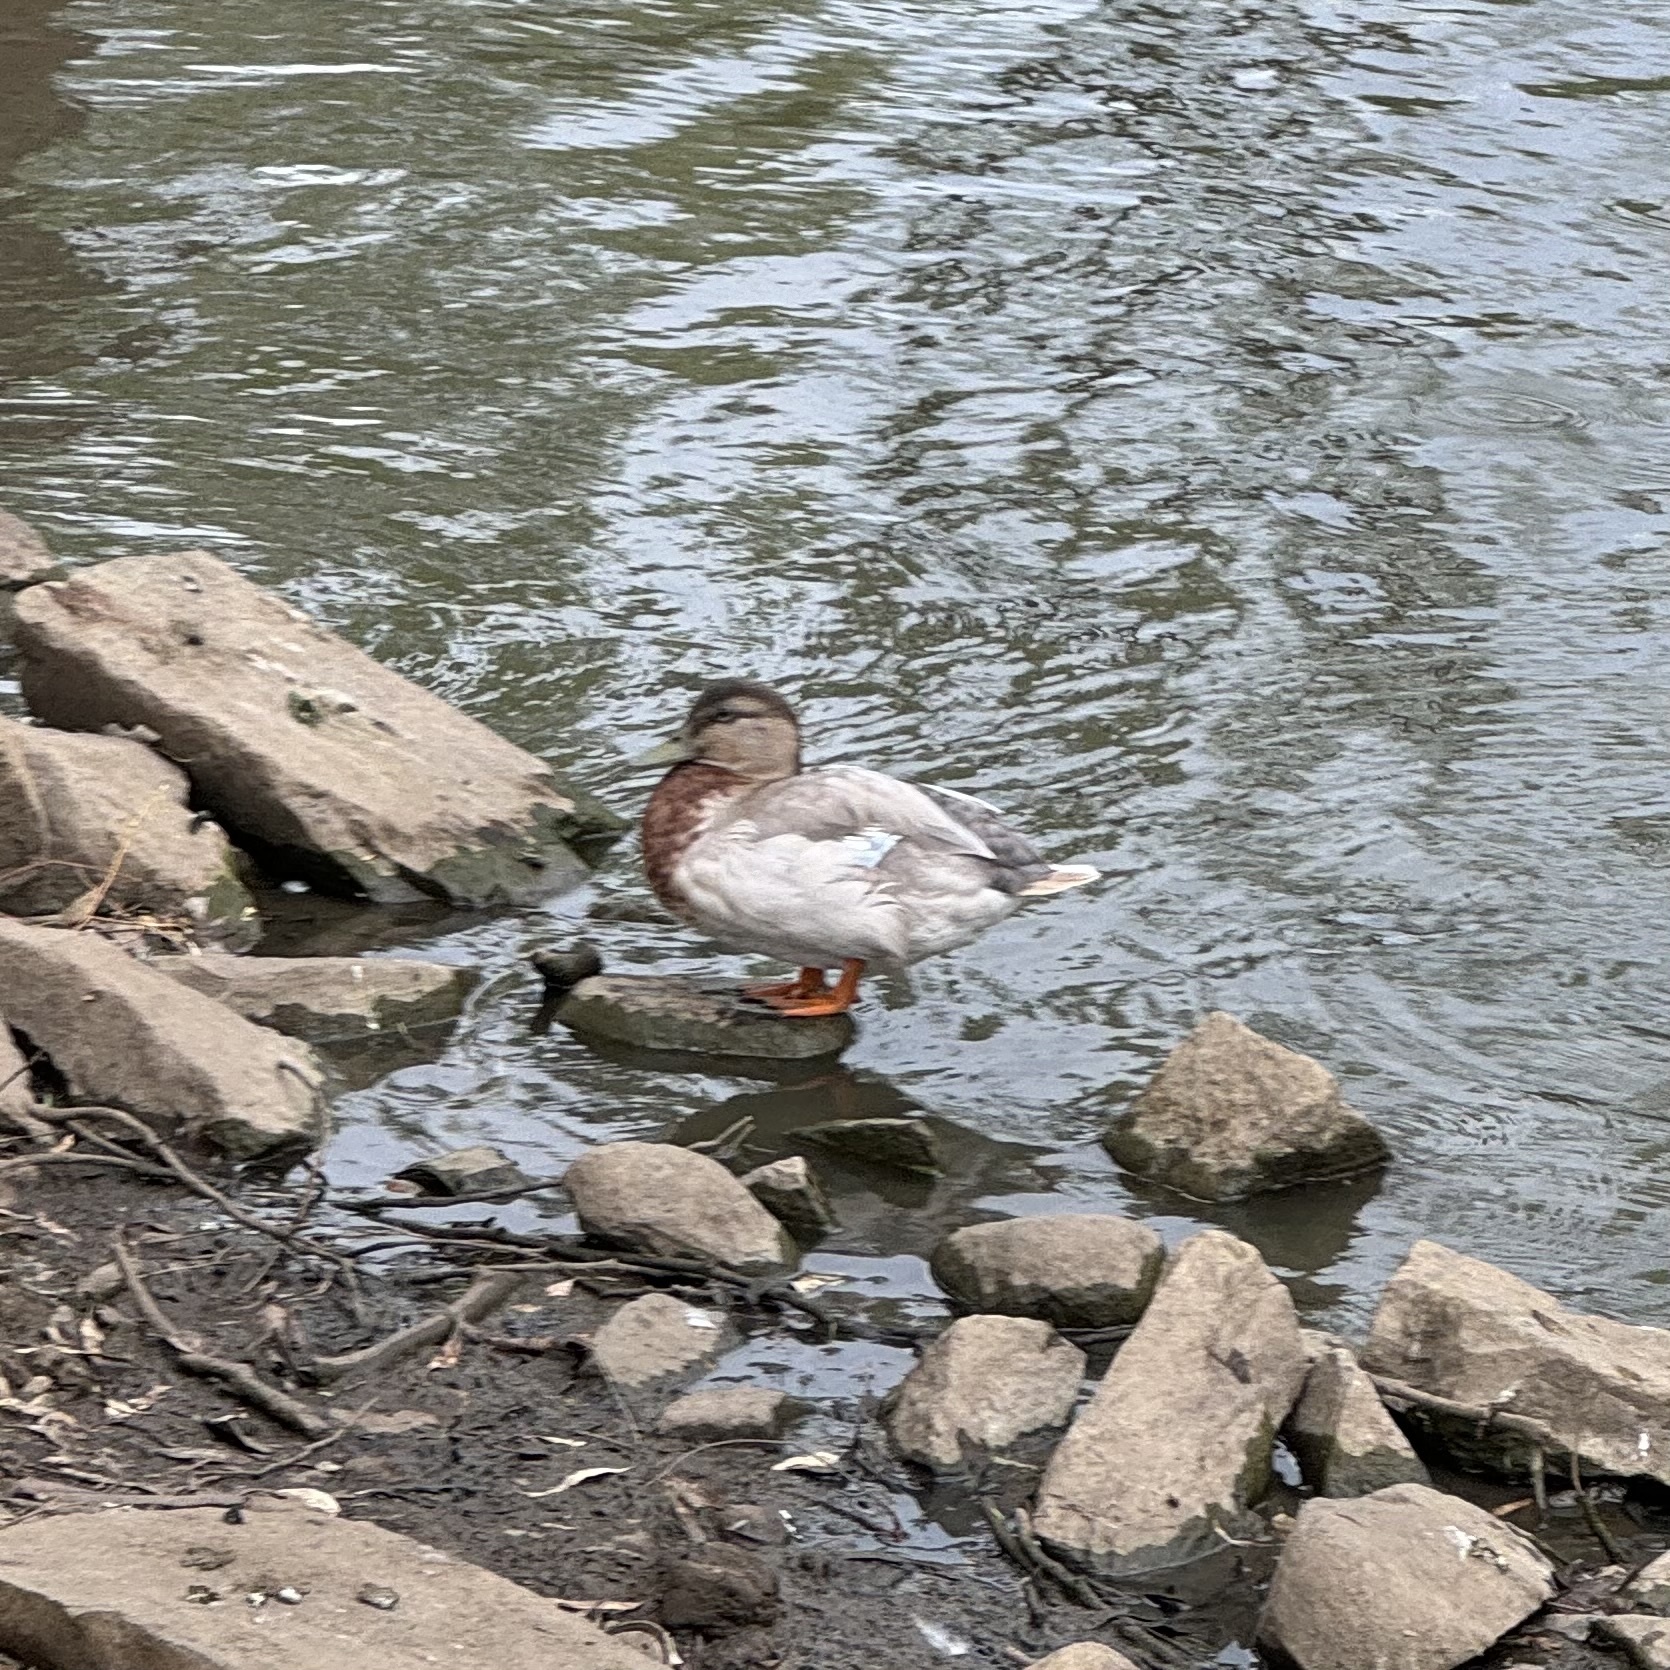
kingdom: Animalia
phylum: Chordata
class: Aves
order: Anseriformes
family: Anatidae
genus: Anas
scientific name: Anas platyrhynchos
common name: Mallard
